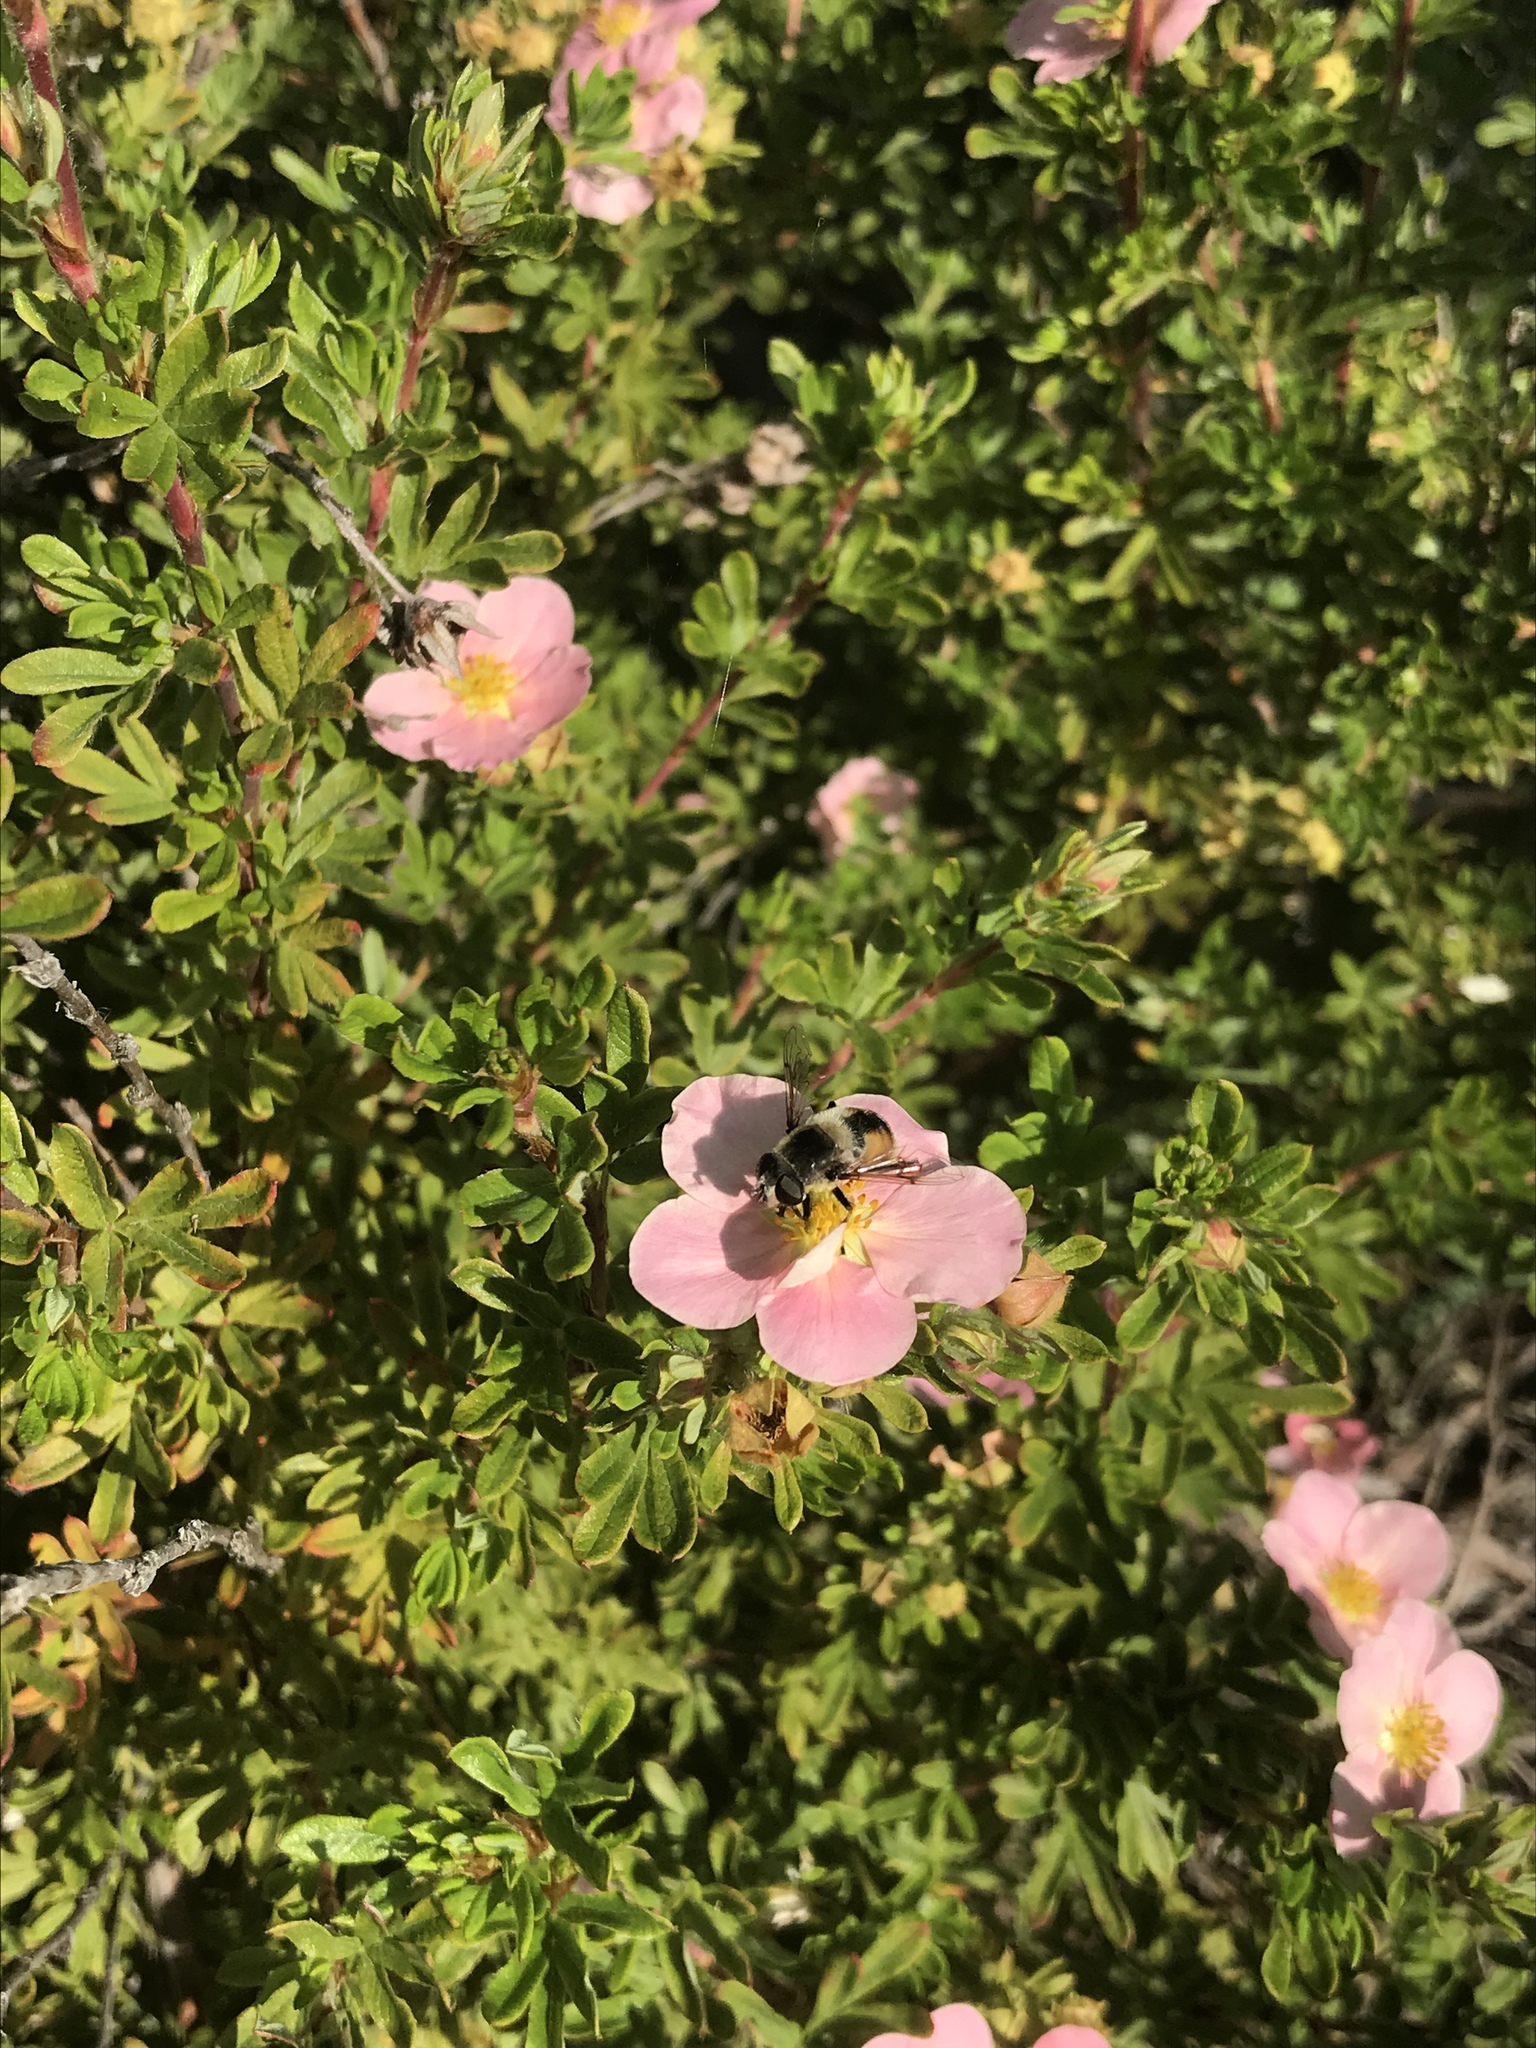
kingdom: Animalia
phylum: Arthropoda
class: Insecta
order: Diptera
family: Syrphidae
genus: Eristalis
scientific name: Eristalis anthophorina
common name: Orange-spotted drone fly
